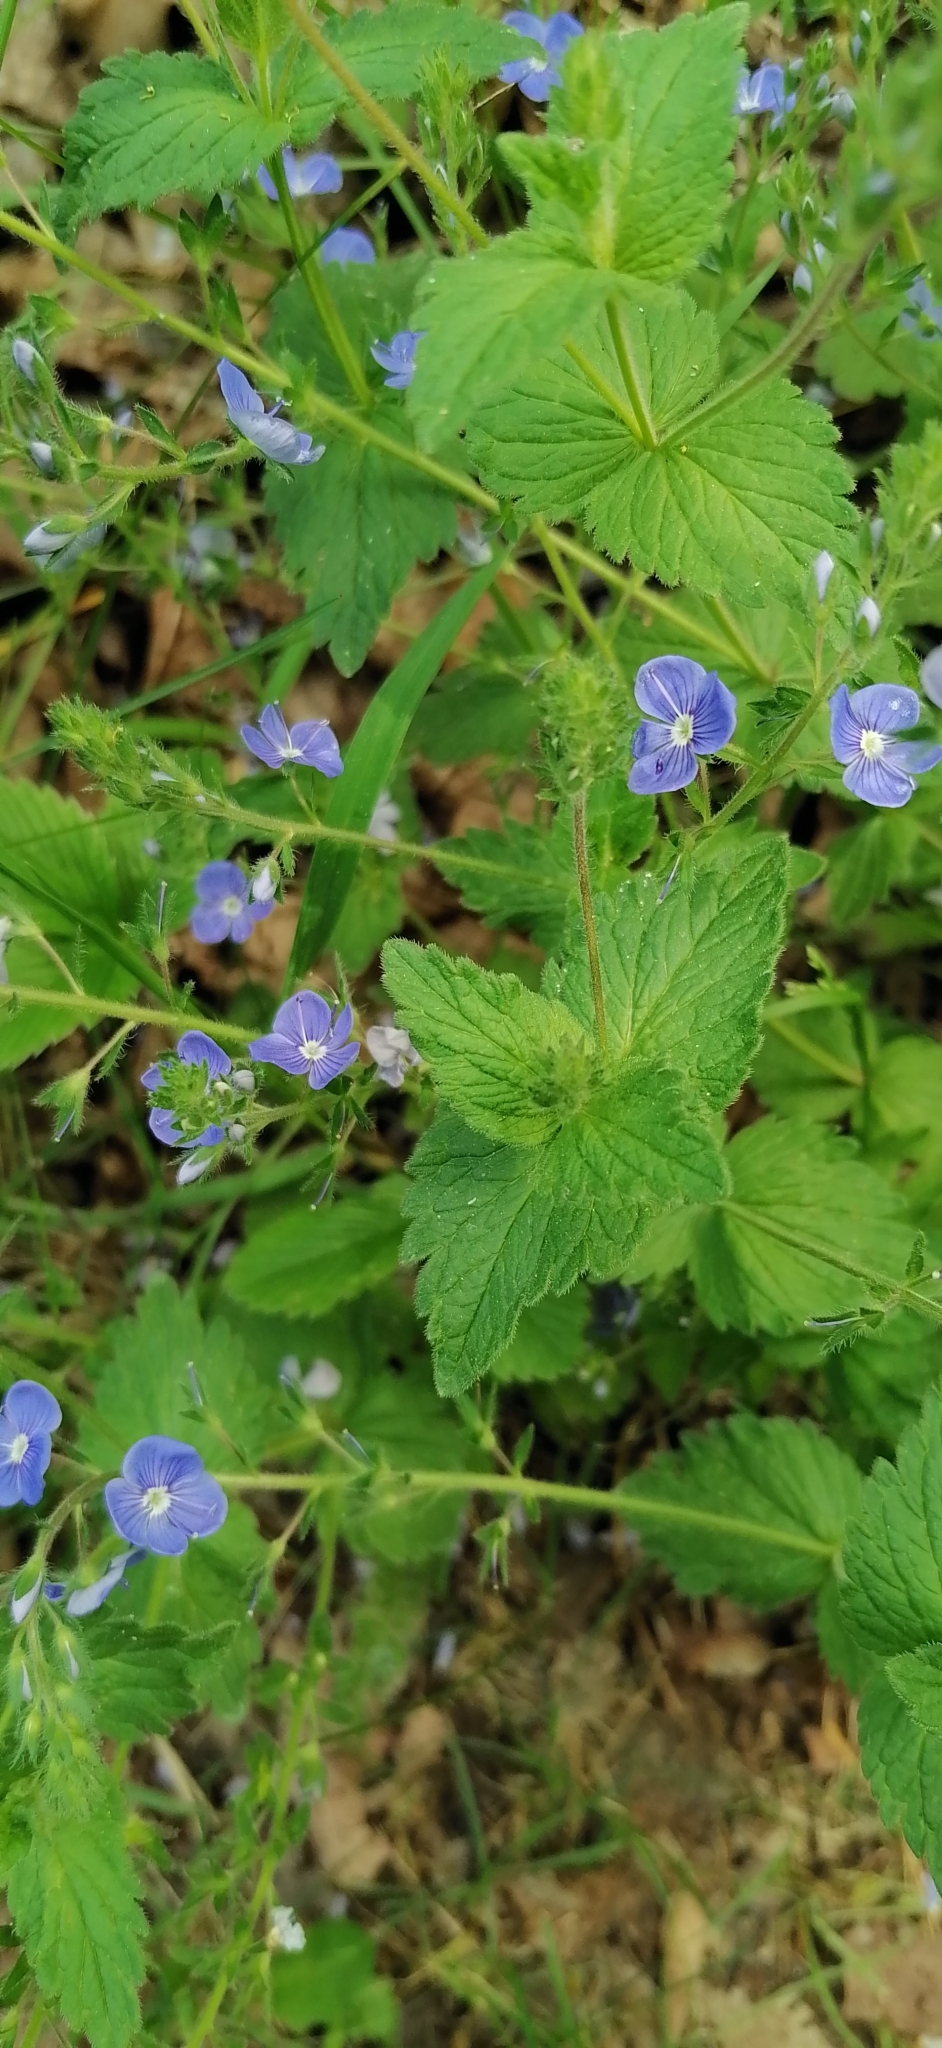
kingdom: Plantae
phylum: Tracheophyta
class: Magnoliopsida
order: Lamiales
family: Plantaginaceae
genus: Veronica
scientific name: Veronica chamaedrys
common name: Germander speedwell
